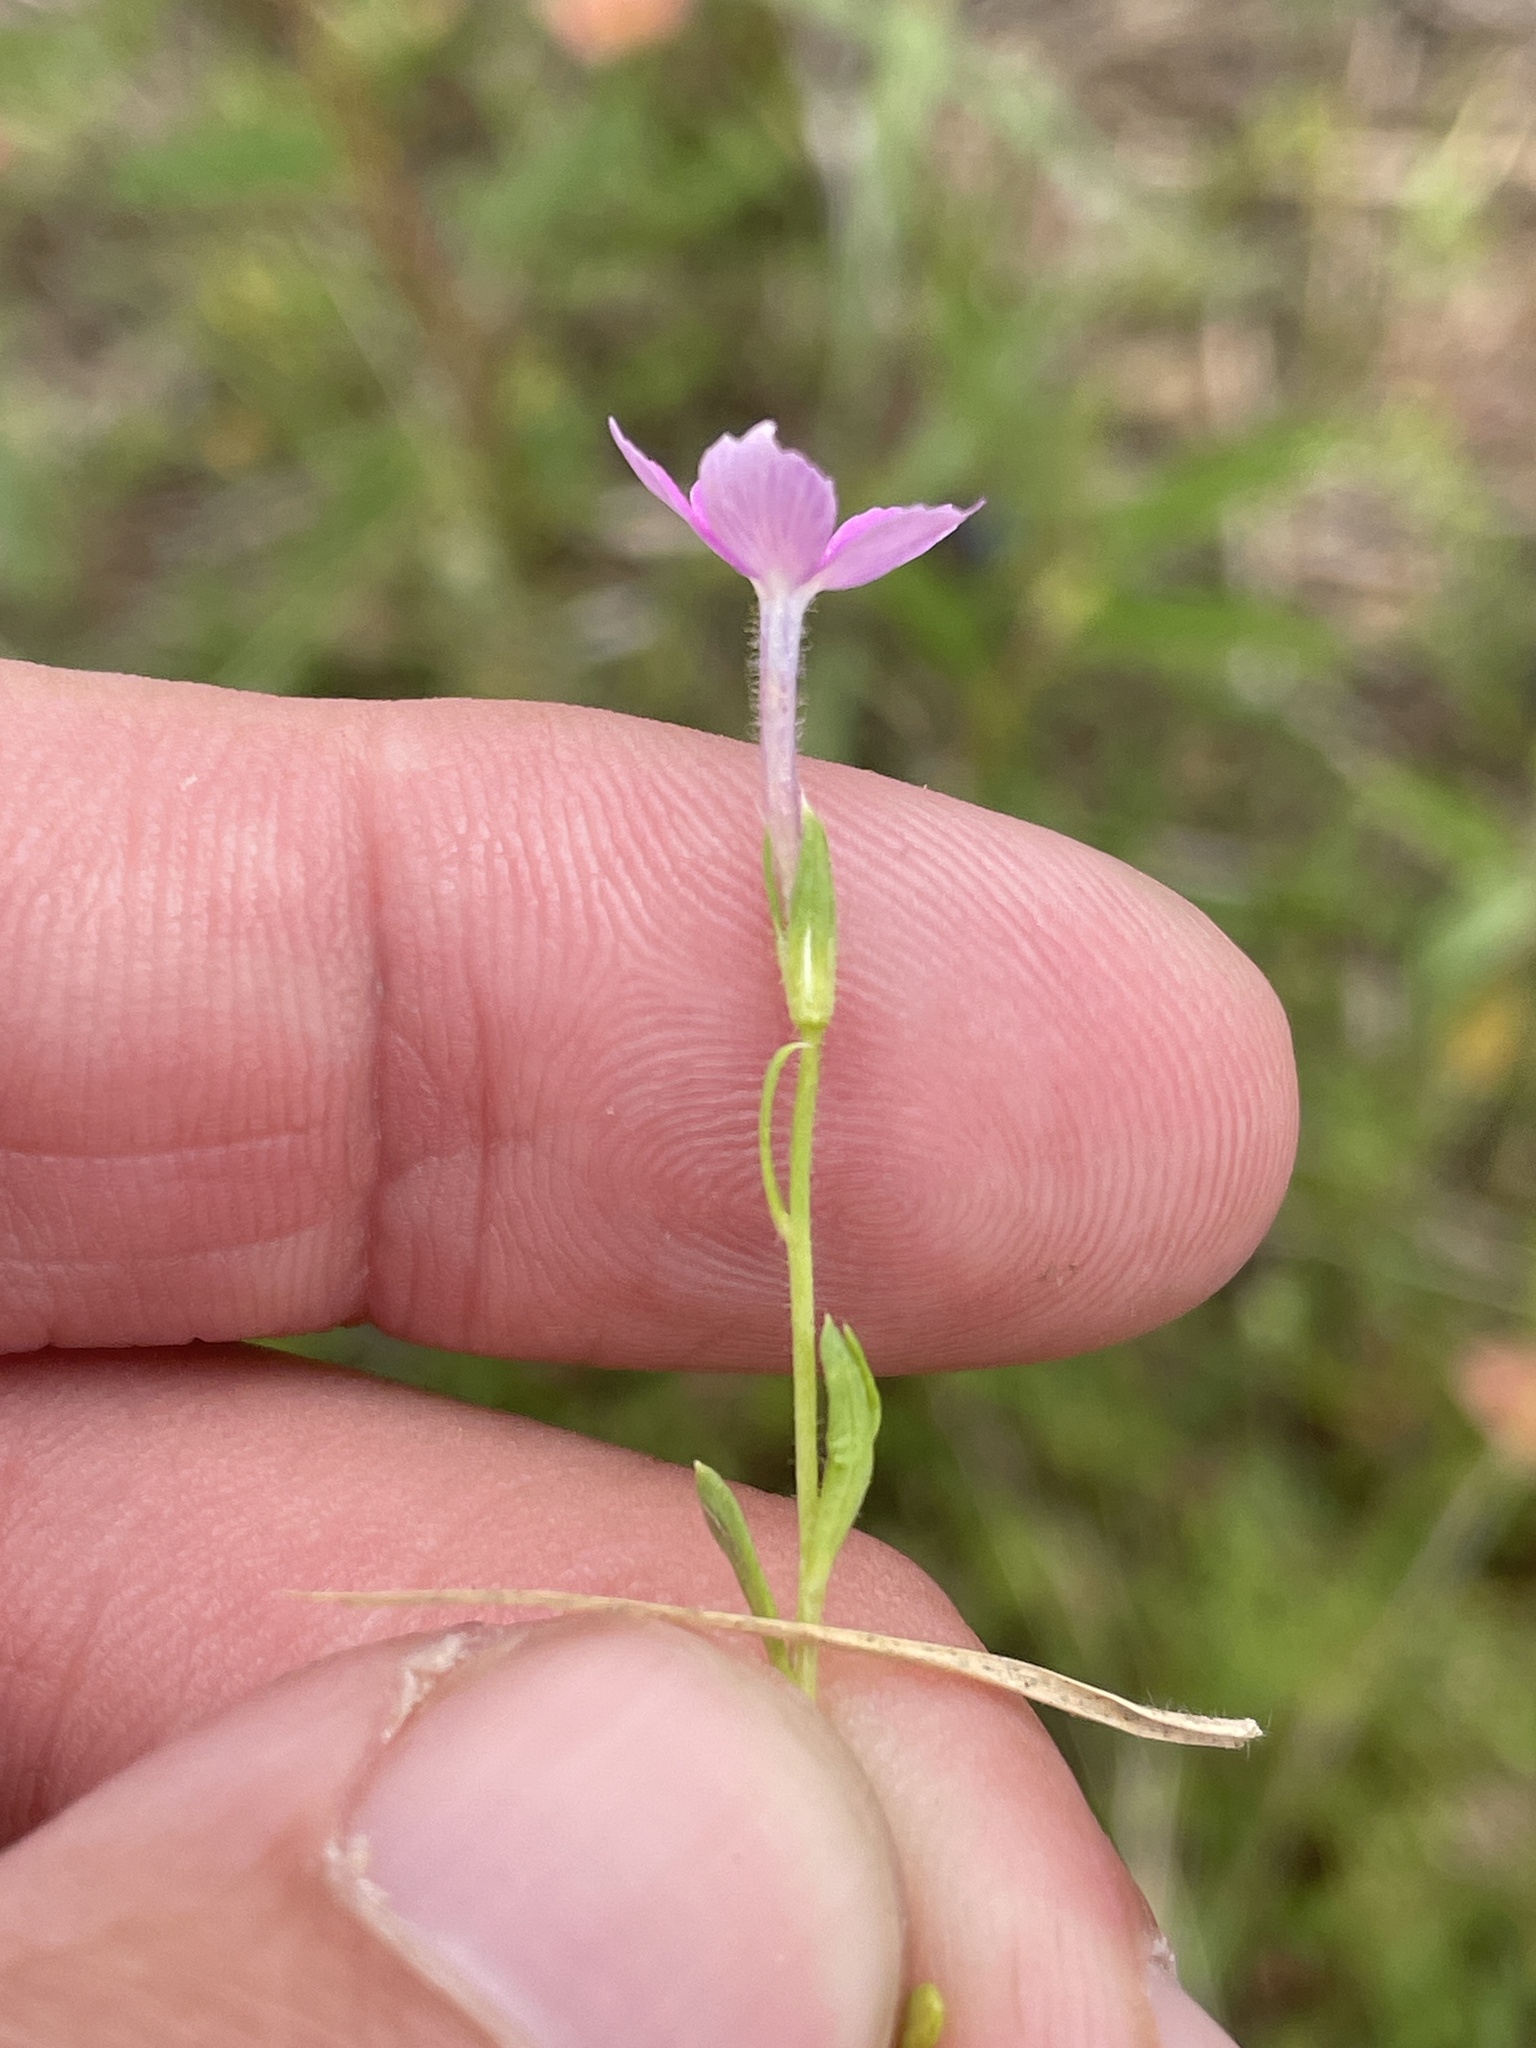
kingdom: Plantae
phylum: Tracheophyta
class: Magnoliopsida
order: Ericales
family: Polemoniaceae
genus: Phlox
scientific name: Phlox cuspidata
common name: Pointed phlox
